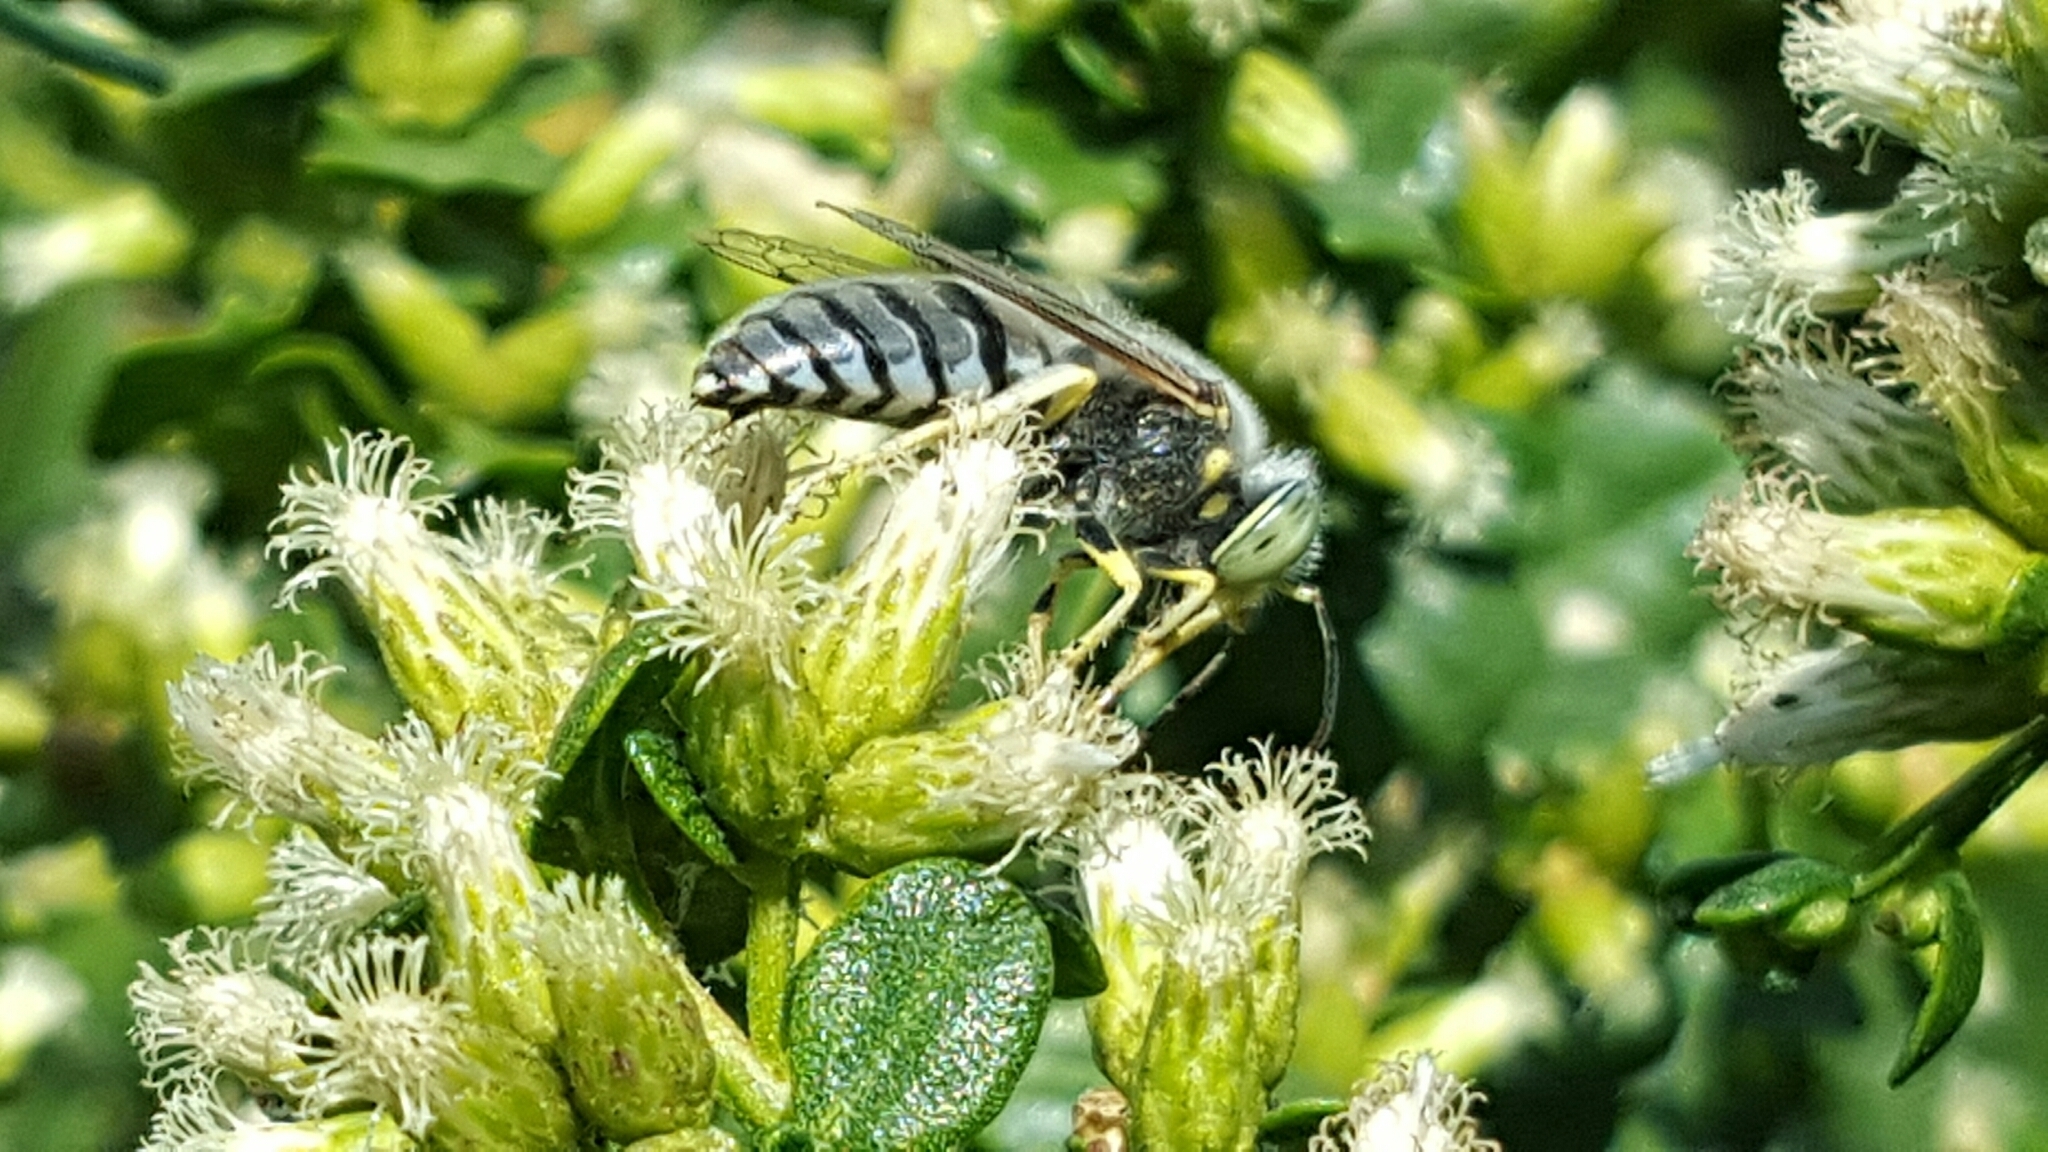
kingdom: Animalia
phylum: Arthropoda
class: Insecta
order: Hymenoptera
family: Crabronidae
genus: Bembix
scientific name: Bembix
